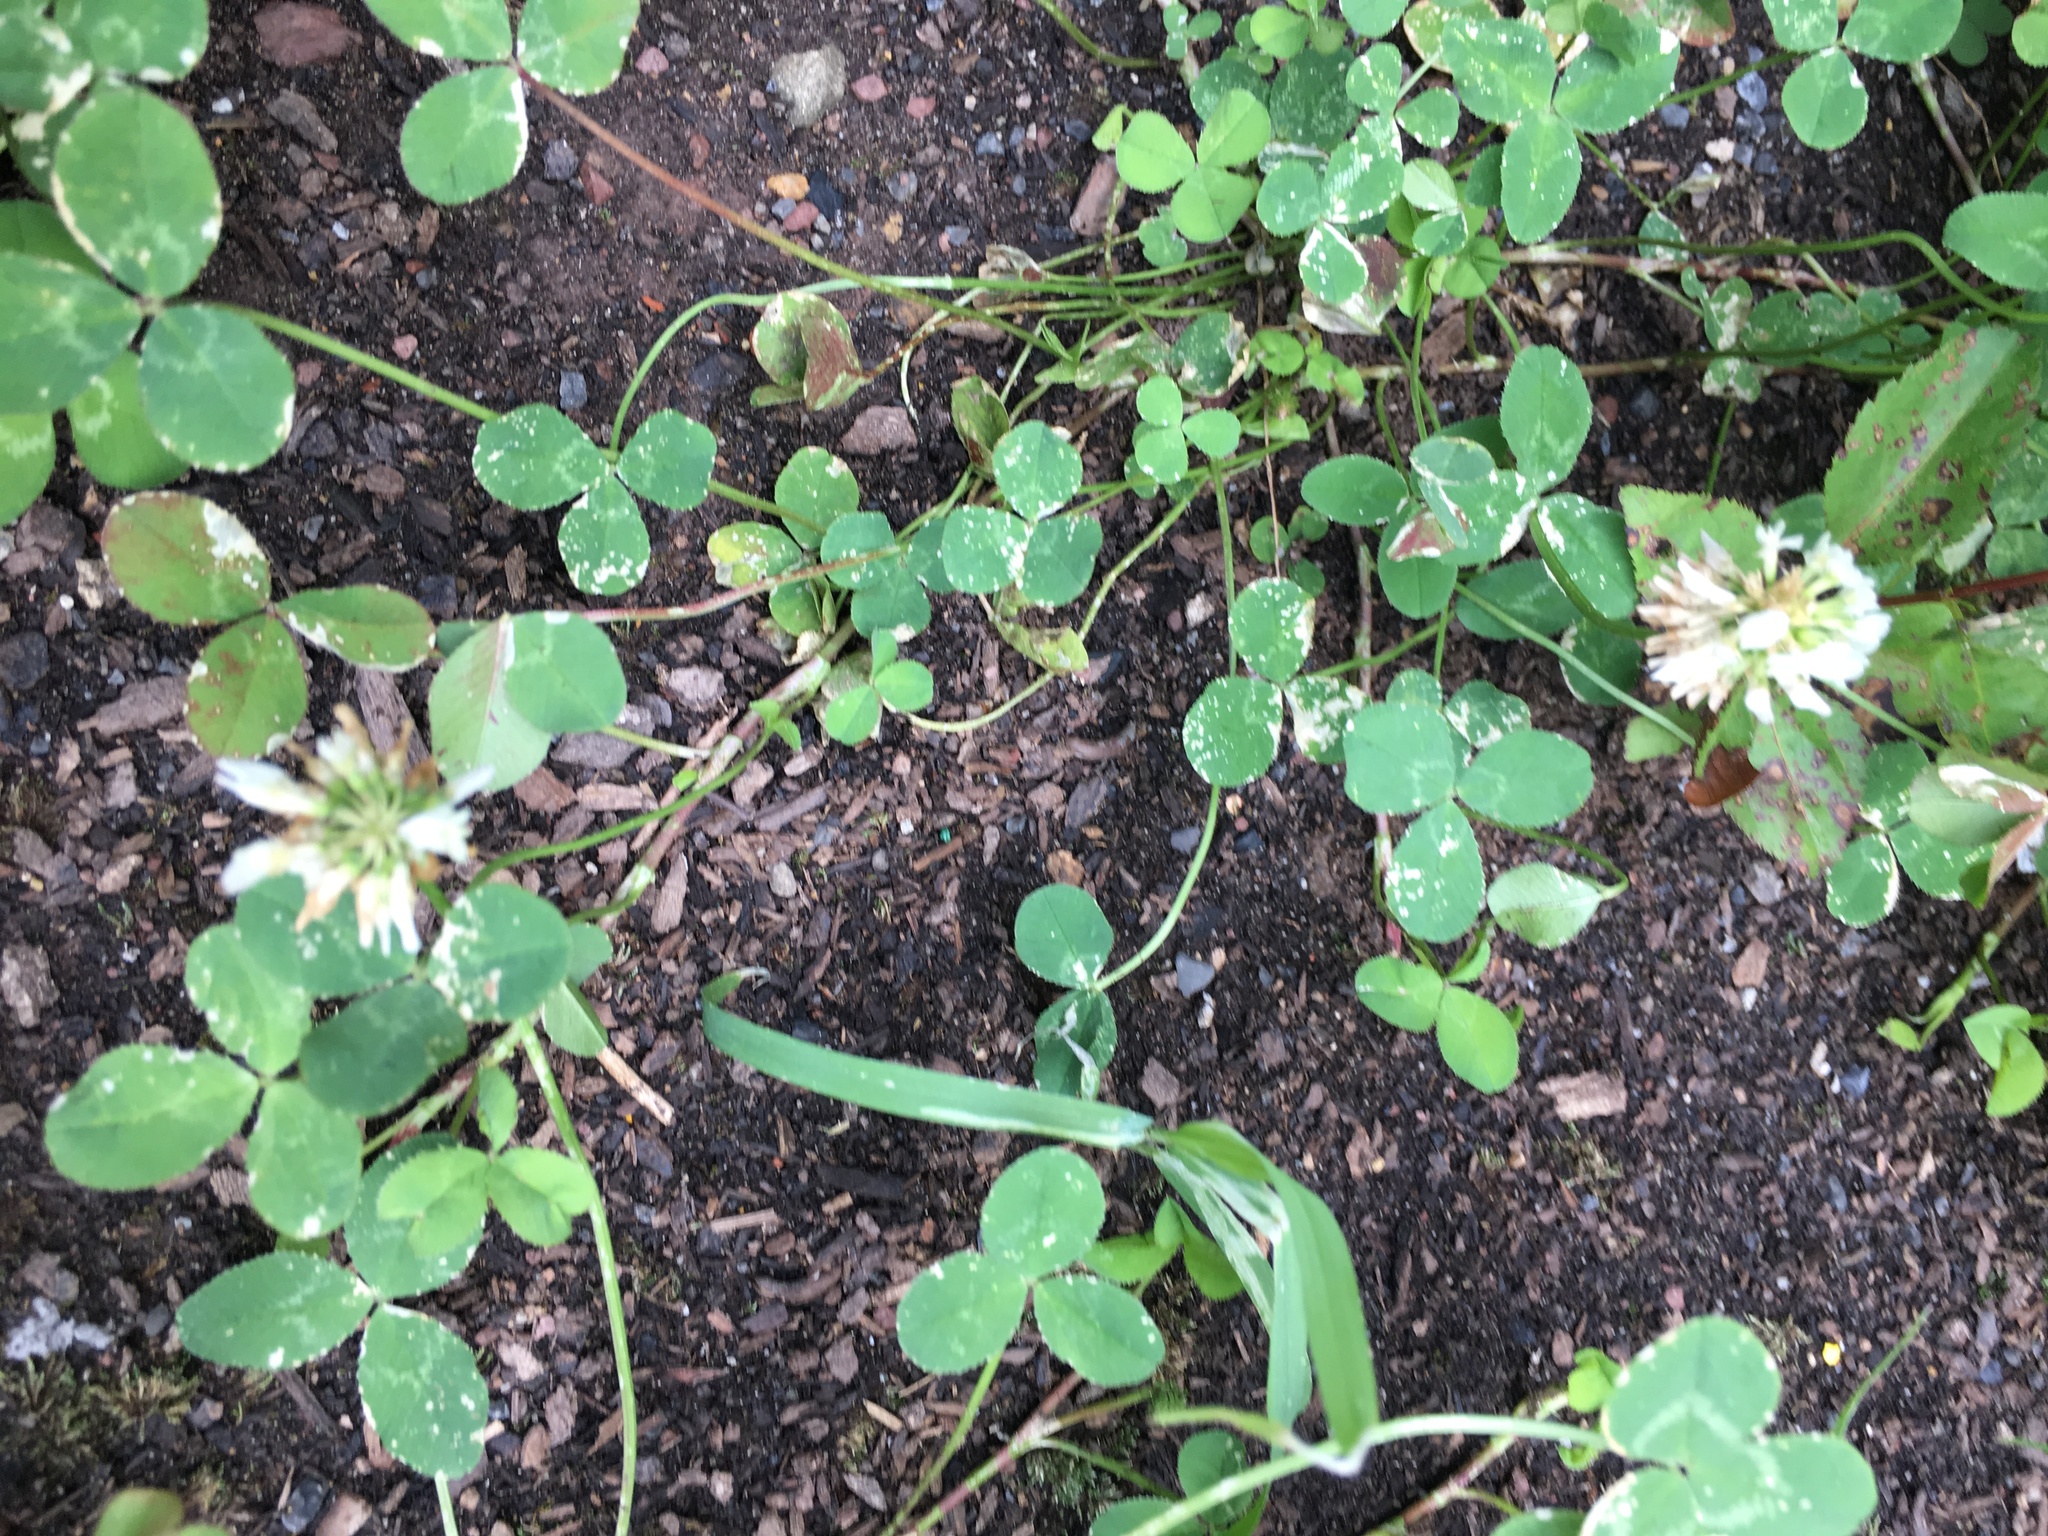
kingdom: Plantae
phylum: Tracheophyta
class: Magnoliopsida
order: Fabales
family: Fabaceae
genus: Trifolium
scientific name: Trifolium repens
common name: White clover
